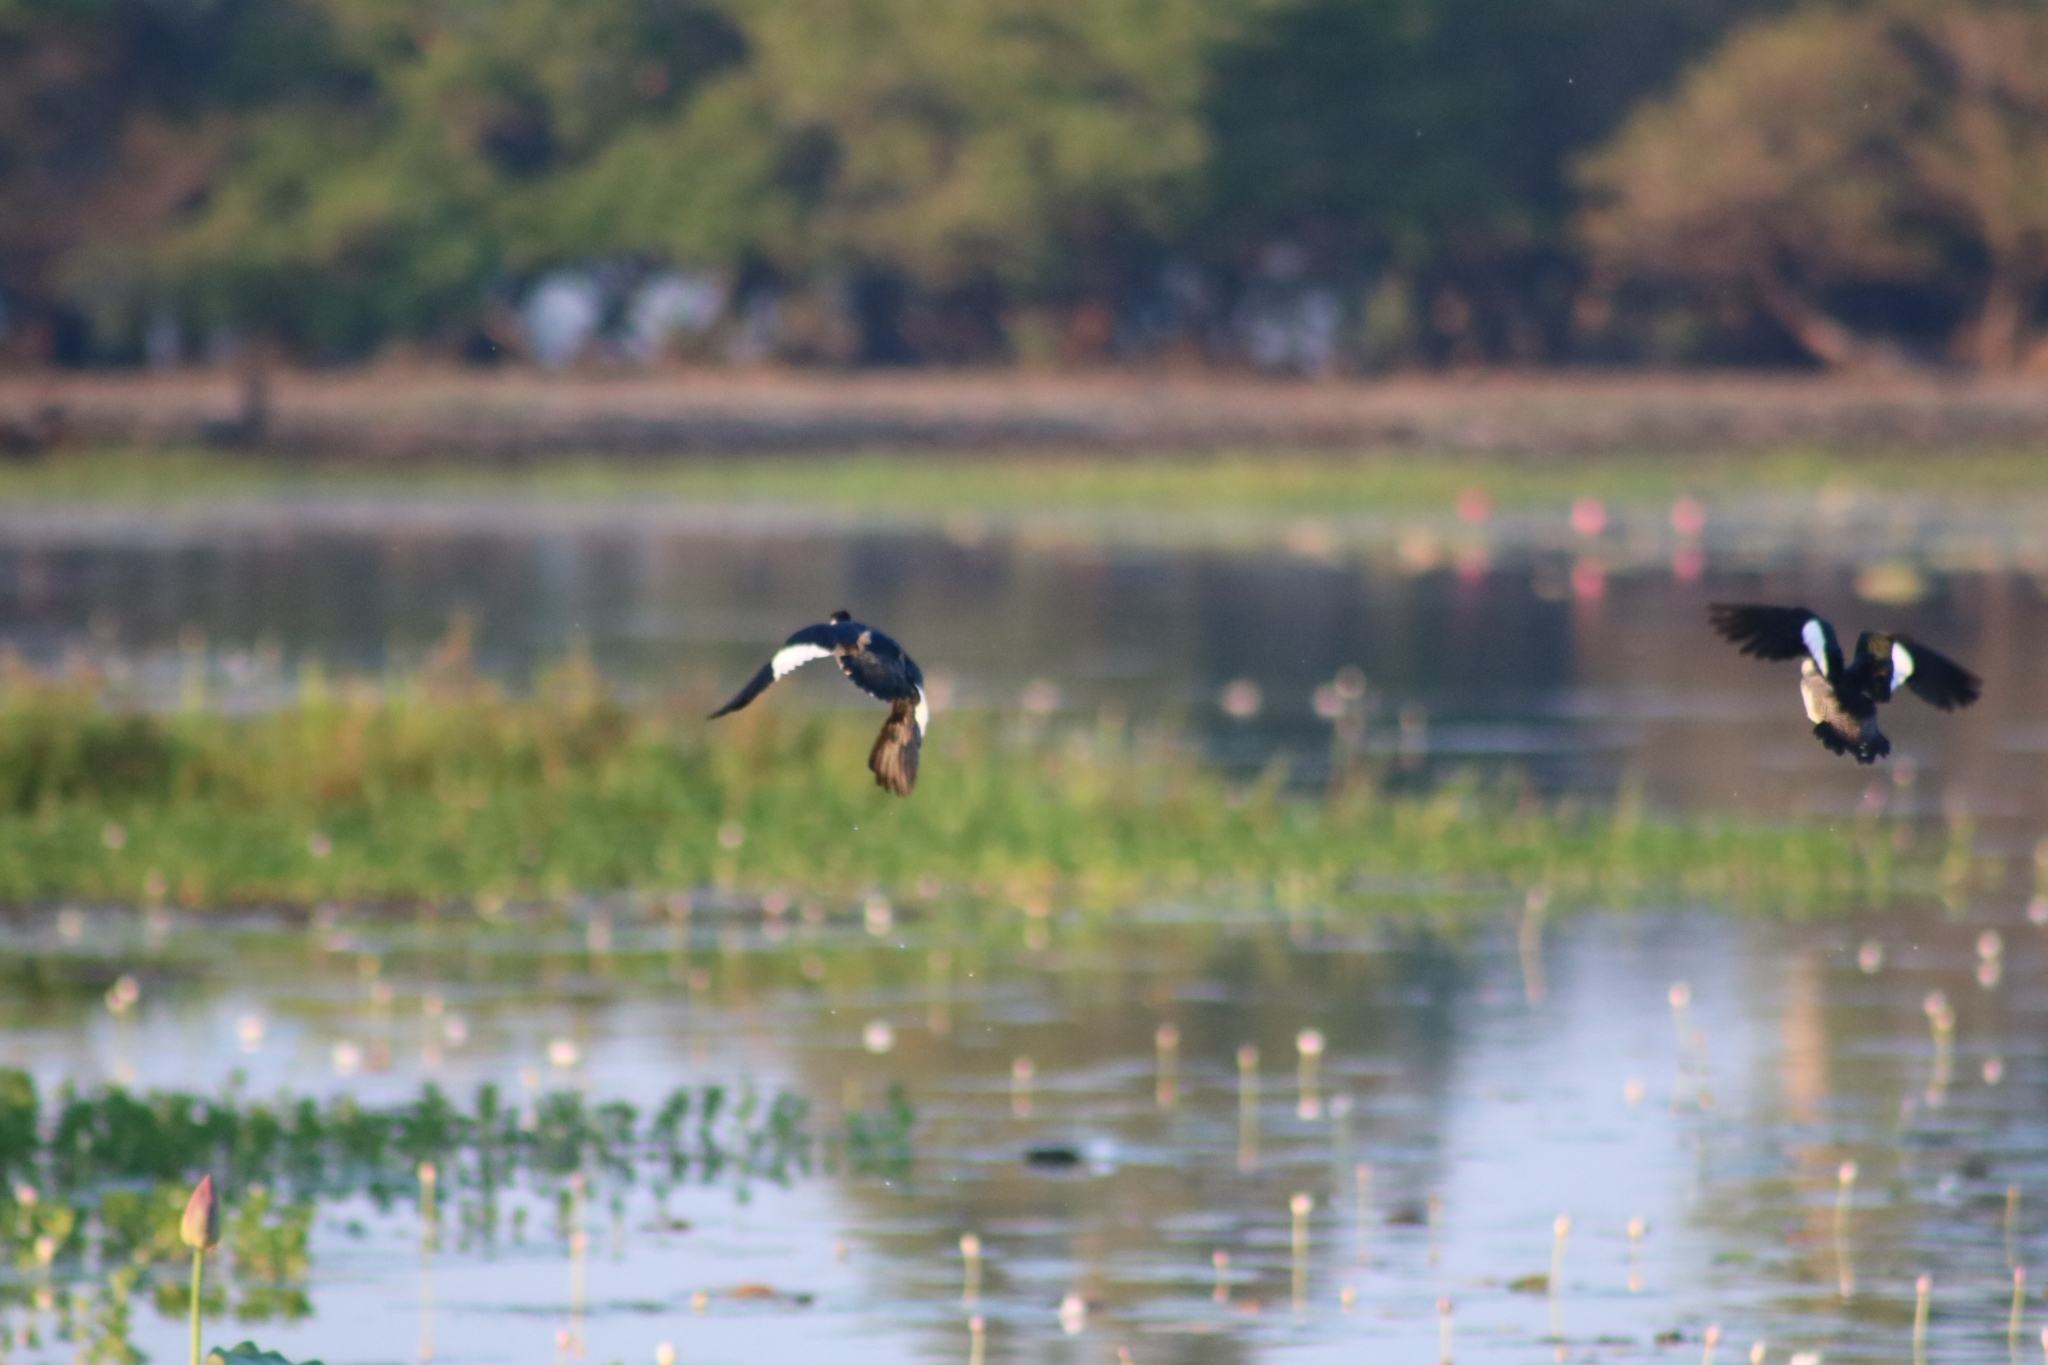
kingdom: Animalia
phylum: Chordata
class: Aves
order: Anseriformes
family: Anatidae
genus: Nettapus
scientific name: Nettapus pulchellus
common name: Green pygmy-goose
